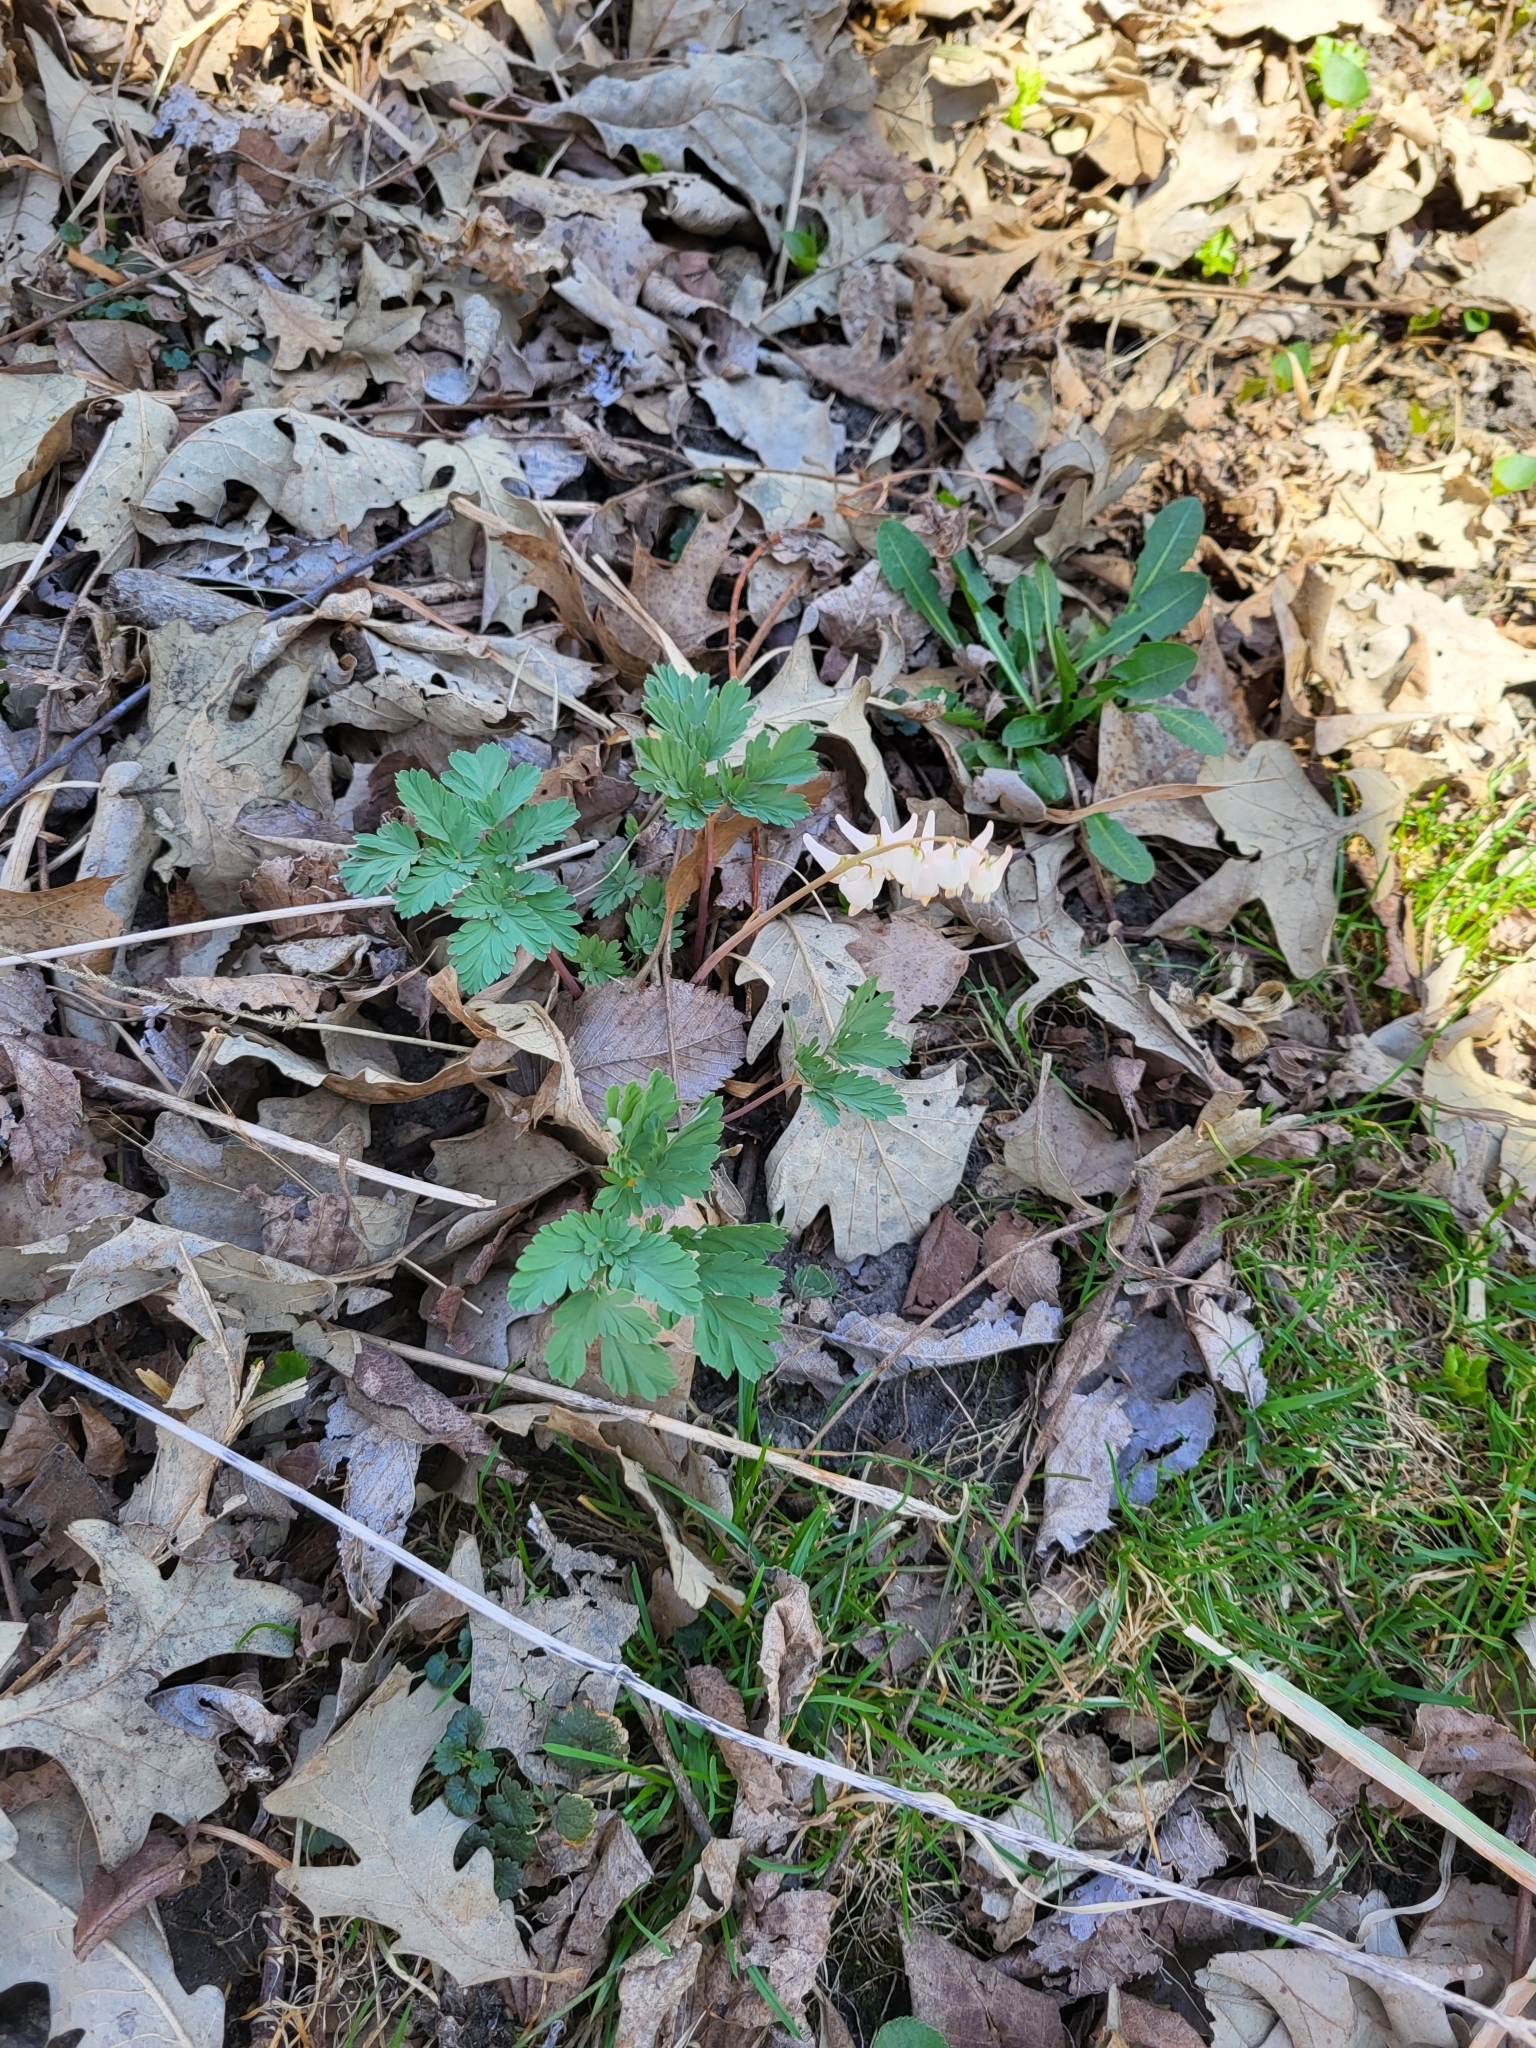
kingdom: Plantae
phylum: Tracheophyta
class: Magnoliopsida
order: Ranunculales
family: Papaveraceae
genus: Dicentra
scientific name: Dicentra cucullaria
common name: Dutchman's breeches
